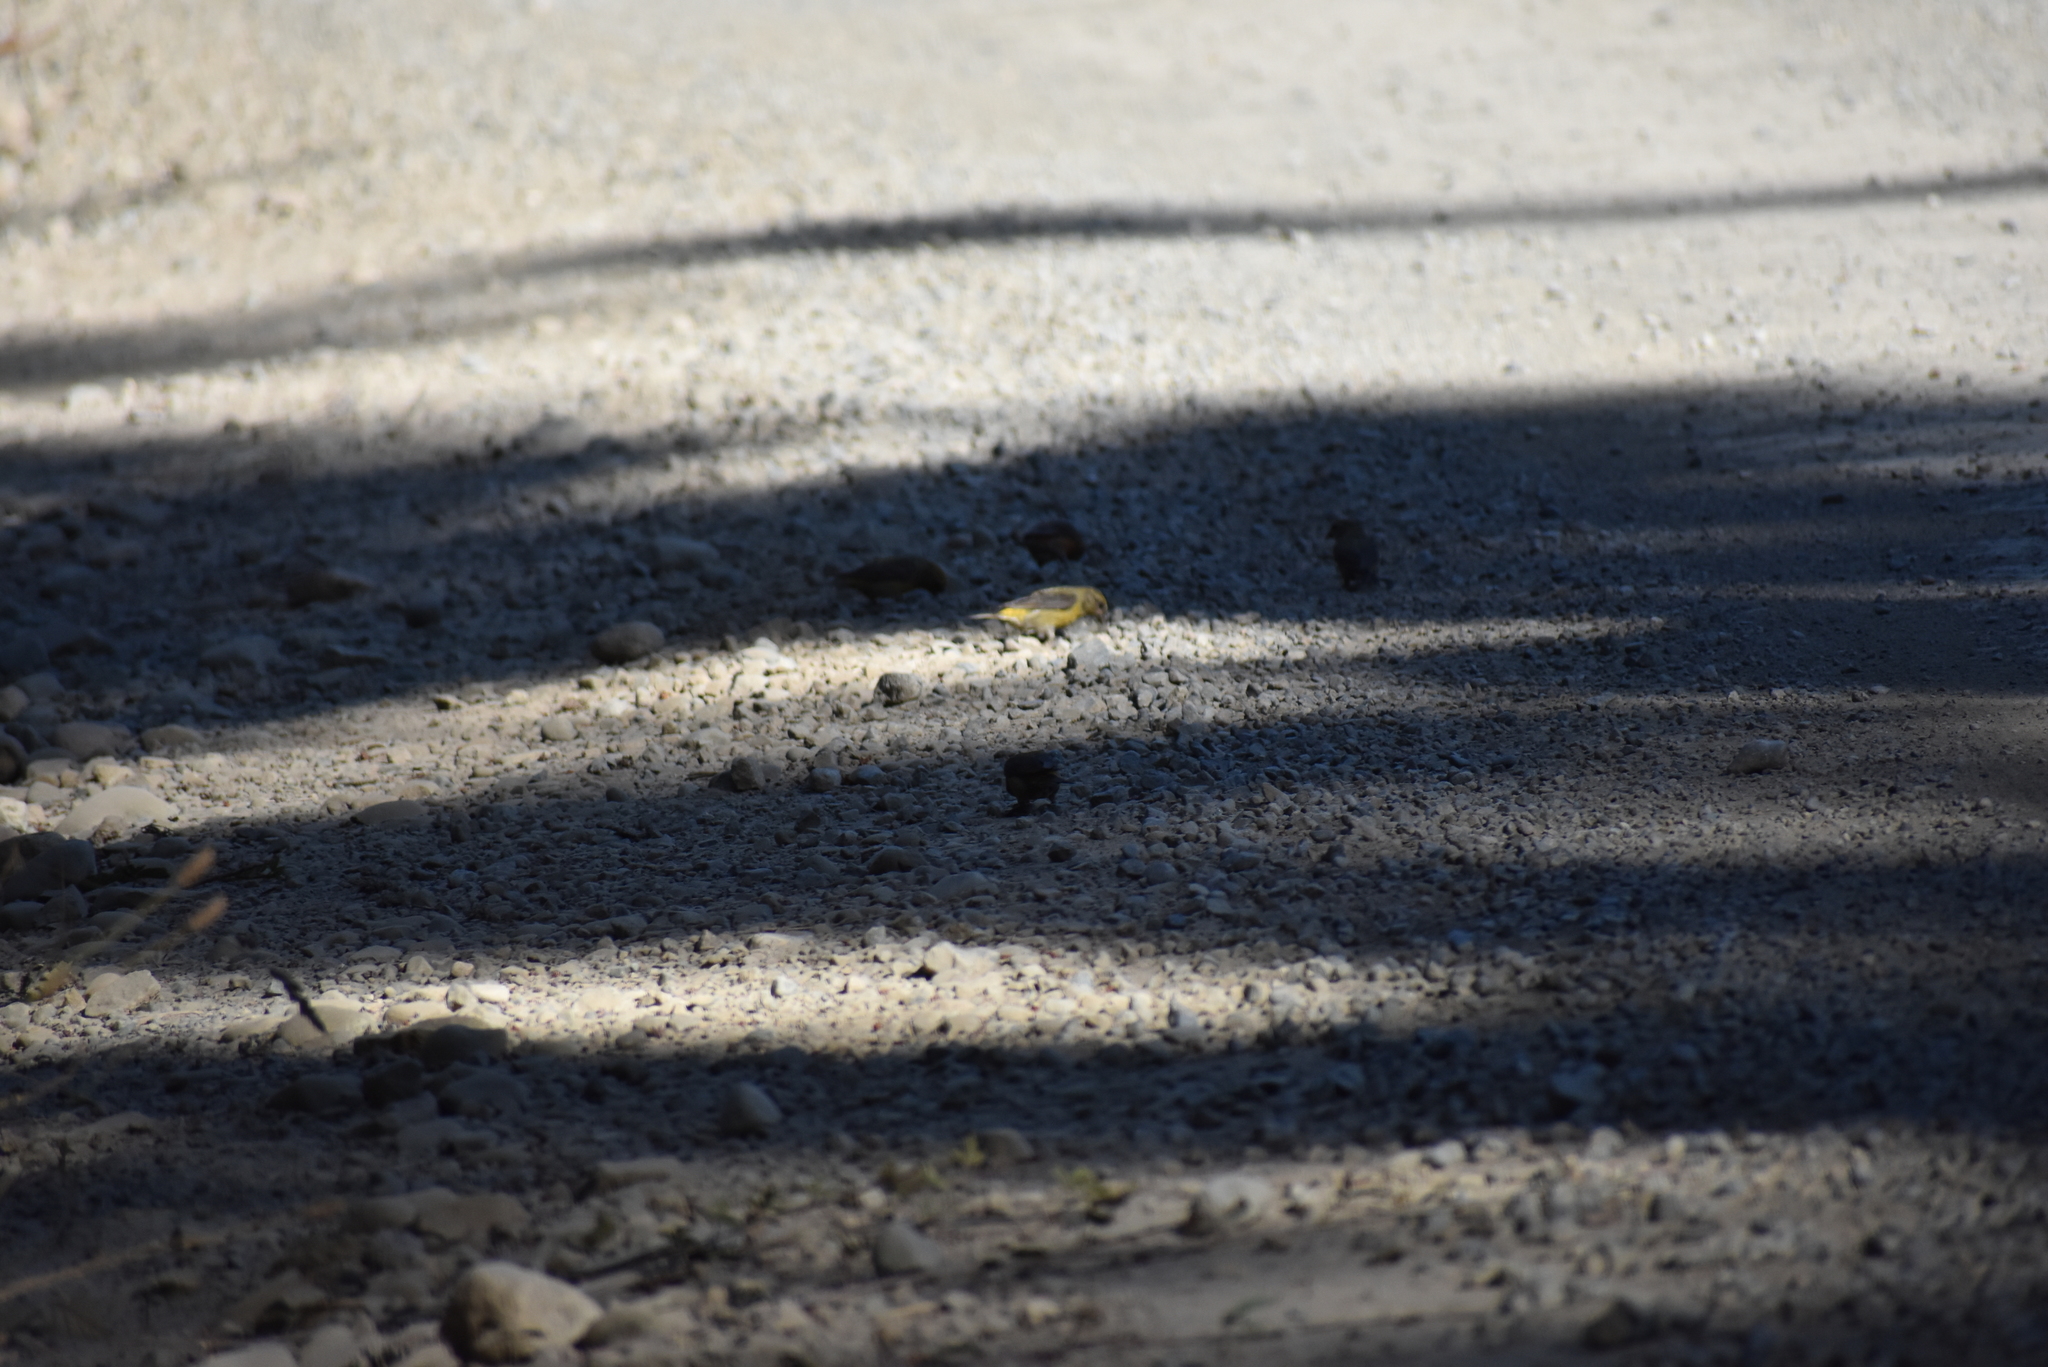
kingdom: Animalia
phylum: Chordata
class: Aves
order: Passeriformes
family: Fringillidae
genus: Loxia
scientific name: Loxia curvirostra
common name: Red crossbill
